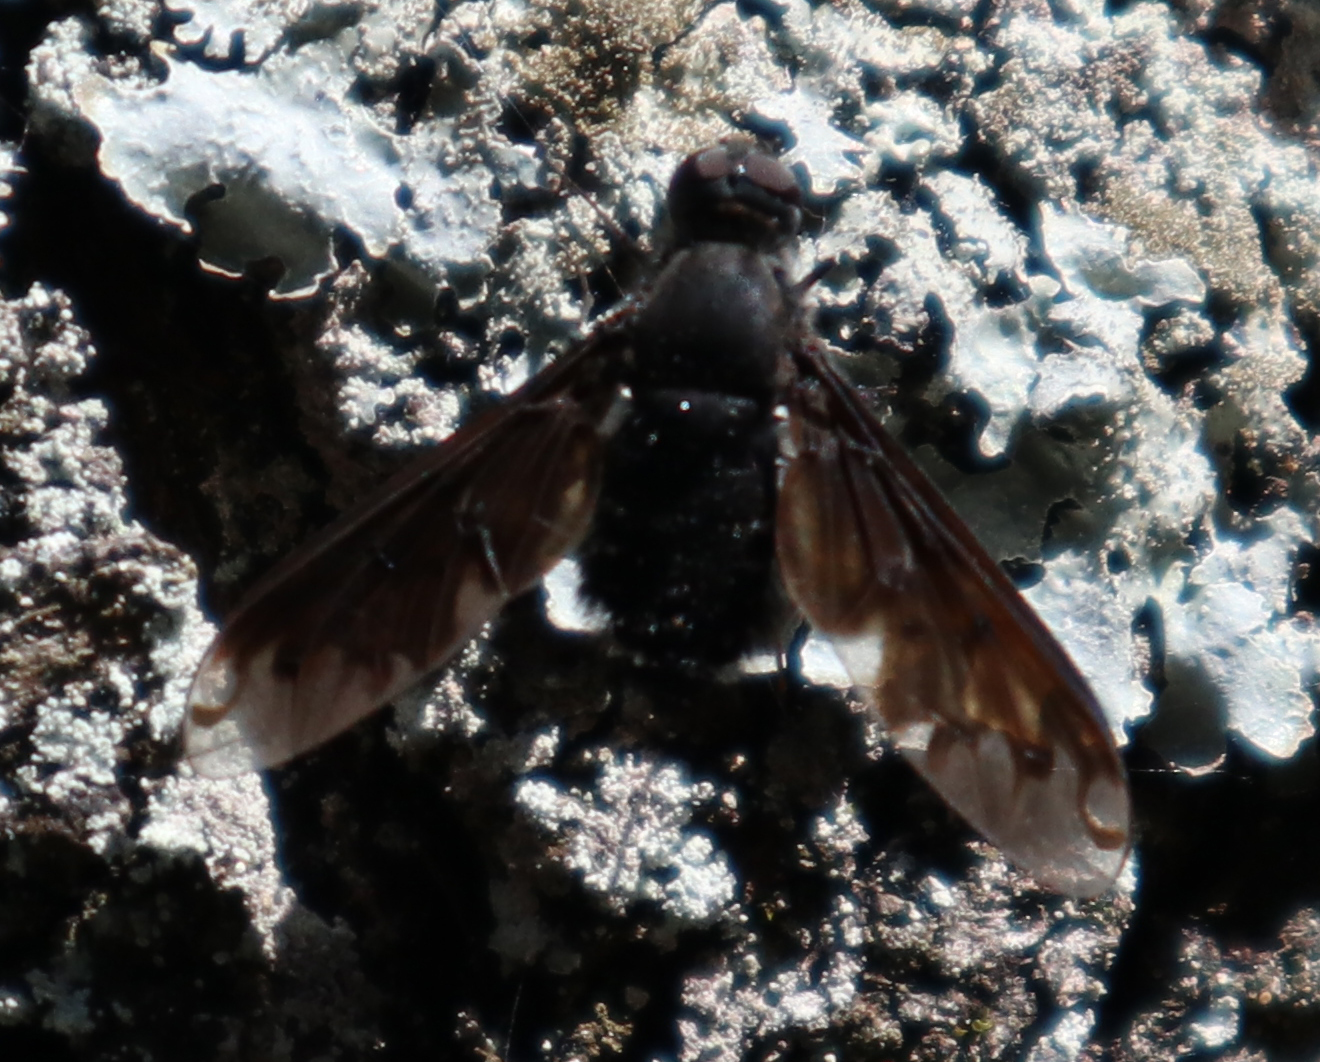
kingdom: Animalia
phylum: Arthropoda
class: Insecta
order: Diptera
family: Bombyliidae
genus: Anthrax
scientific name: Anthrax anthrax
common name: Anthracite bee-fly
